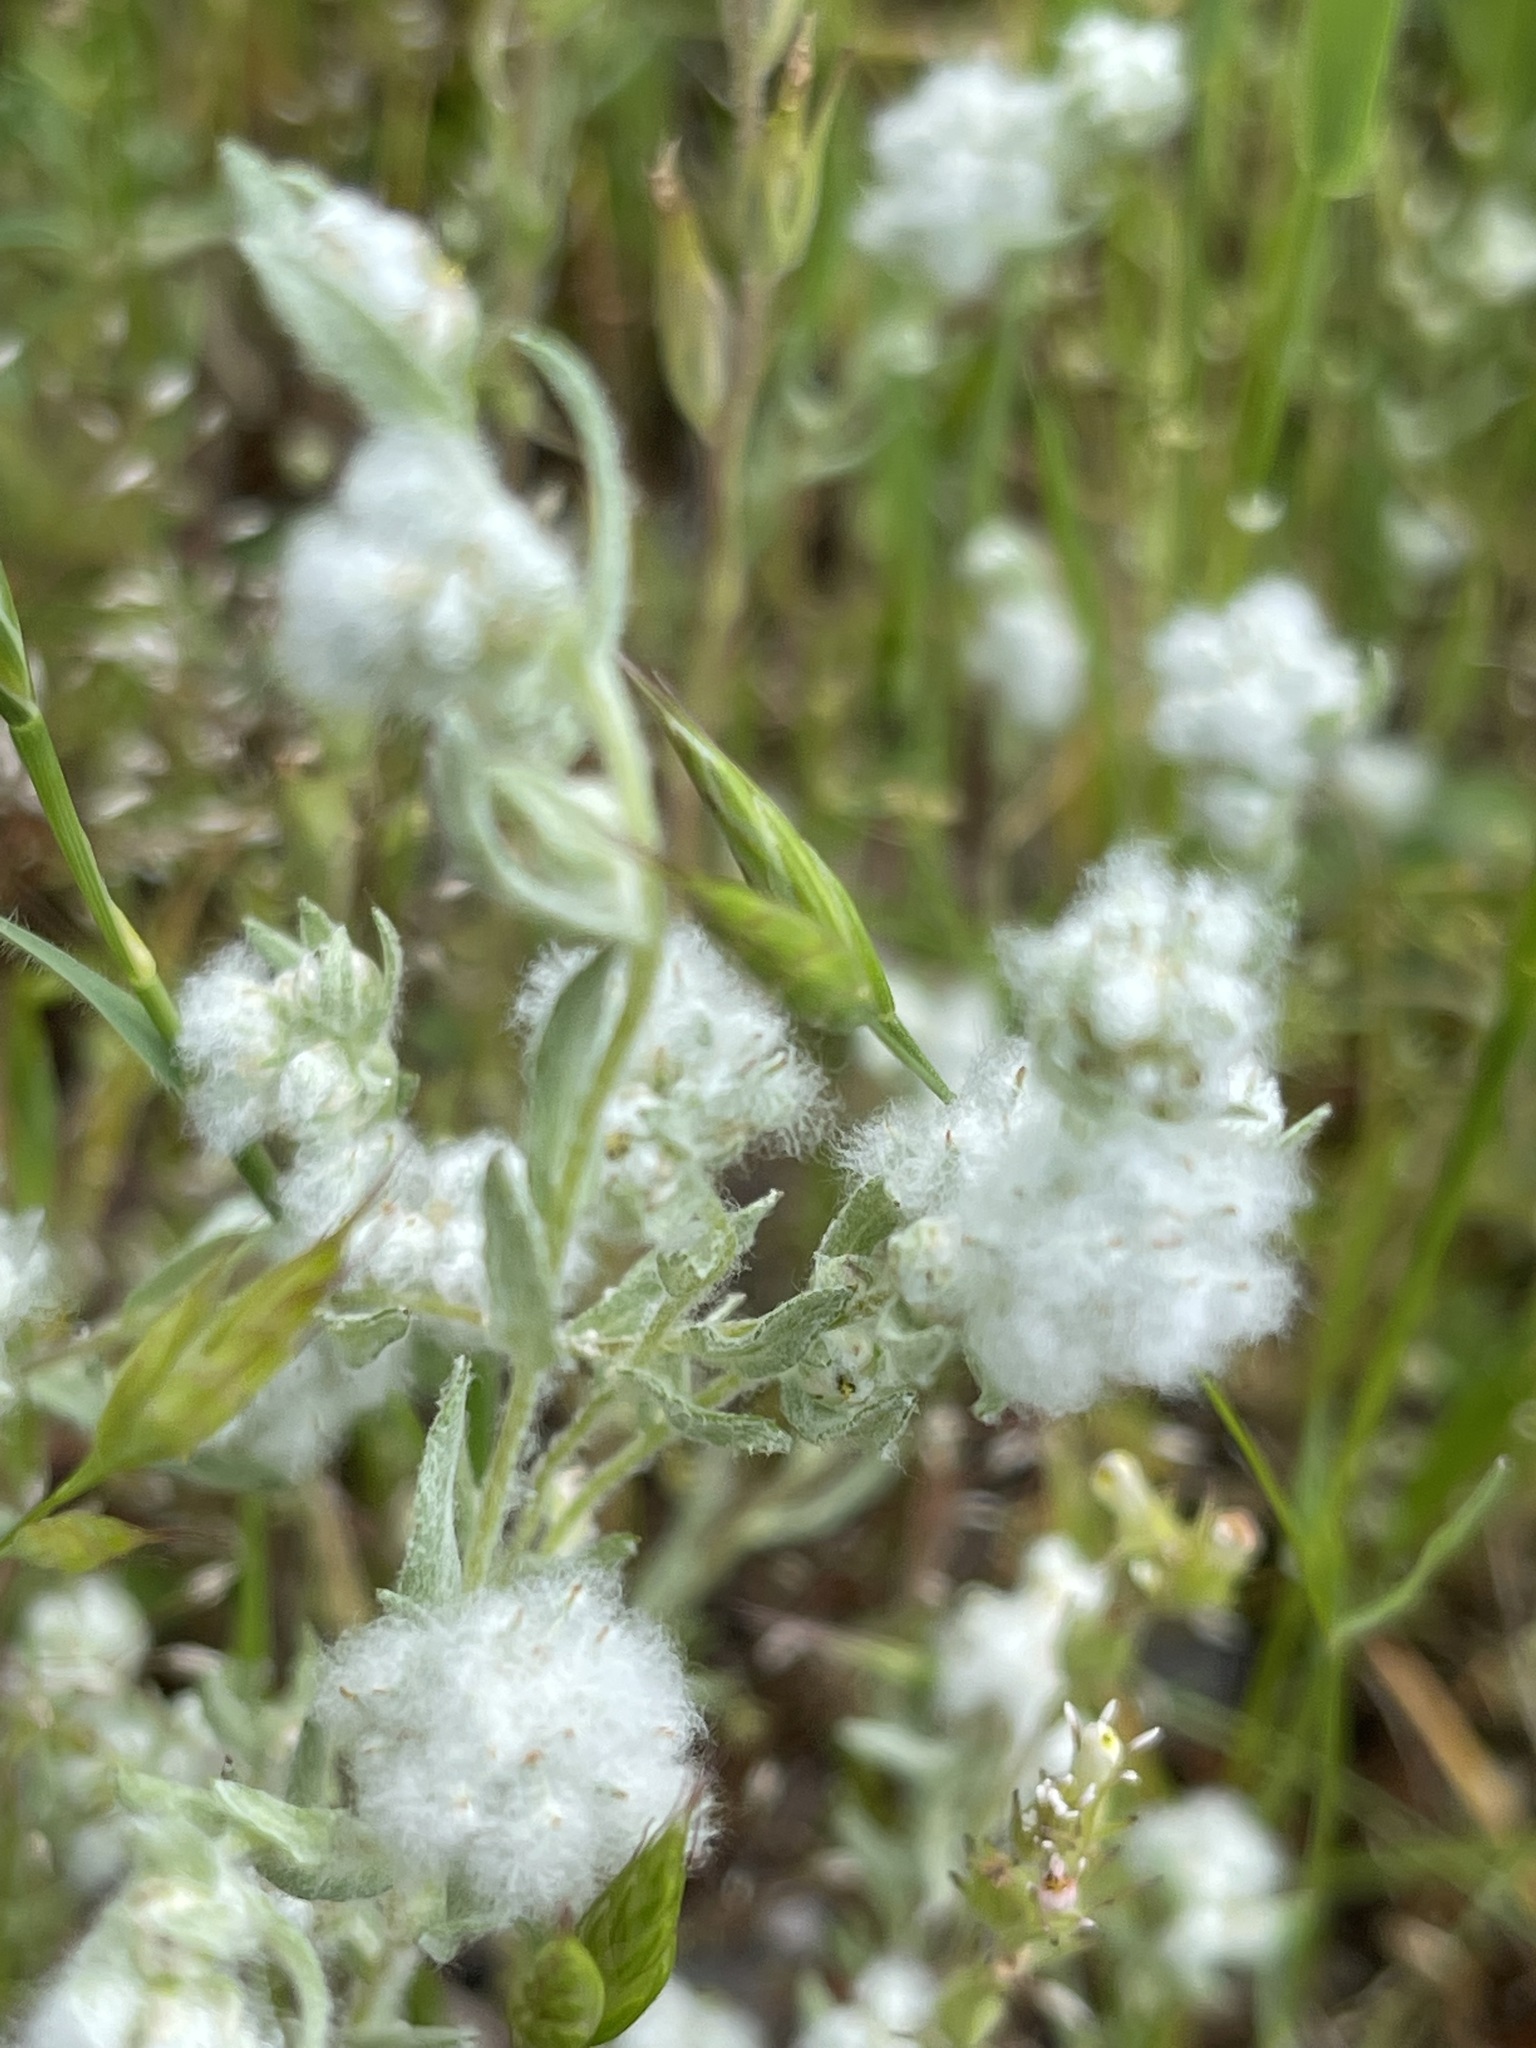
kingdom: Plantae
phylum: Tracheophyta
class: Magnoliopsida
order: Asterales
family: Asteraceae
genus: Bombycilaena
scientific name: Bombycilaena californica
